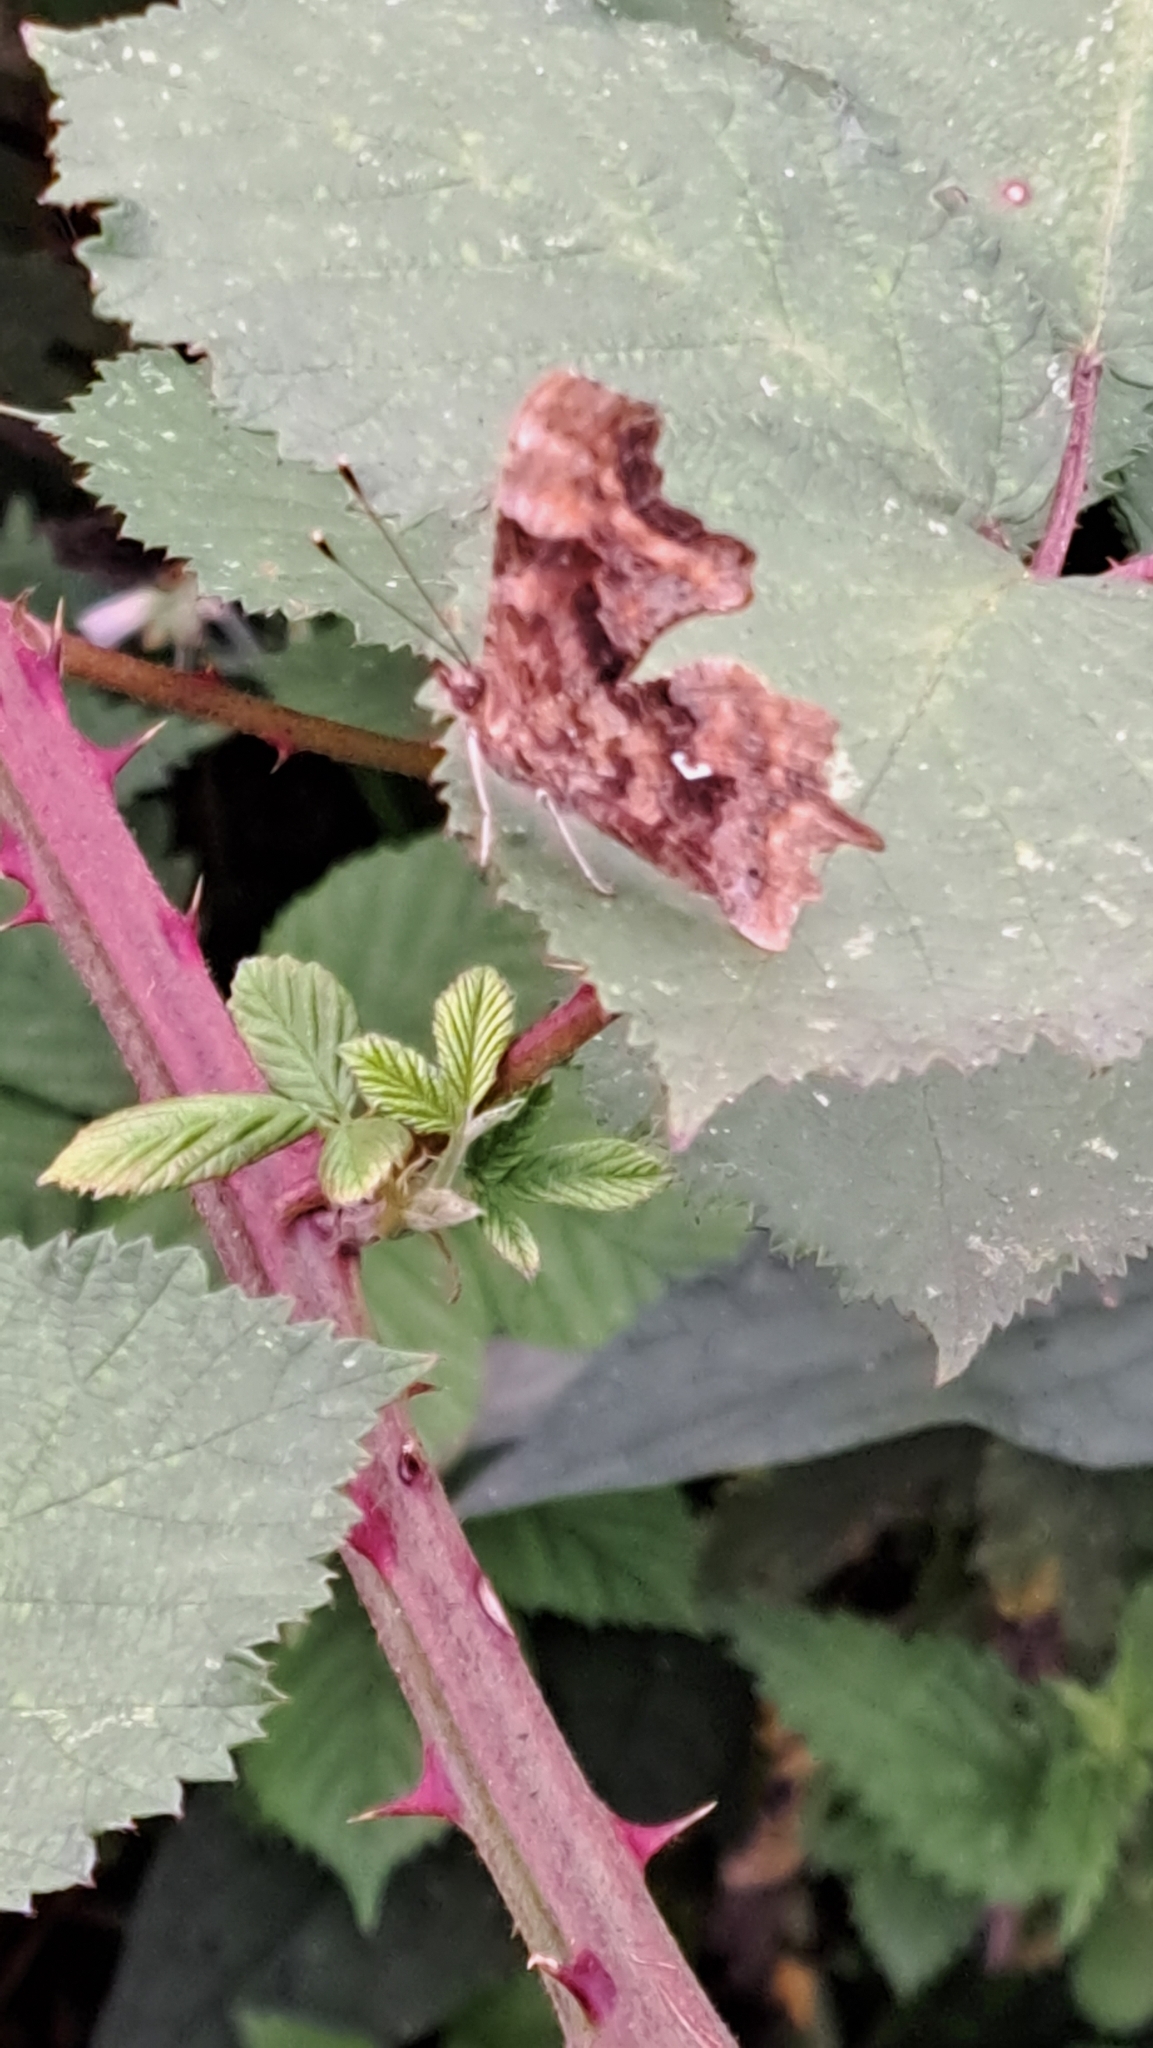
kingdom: Animalia
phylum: Arthropoda
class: Insecta
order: Lepidoptera
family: Nymphalidae
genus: Polygonia
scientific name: Polygonia c-album
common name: Comma
